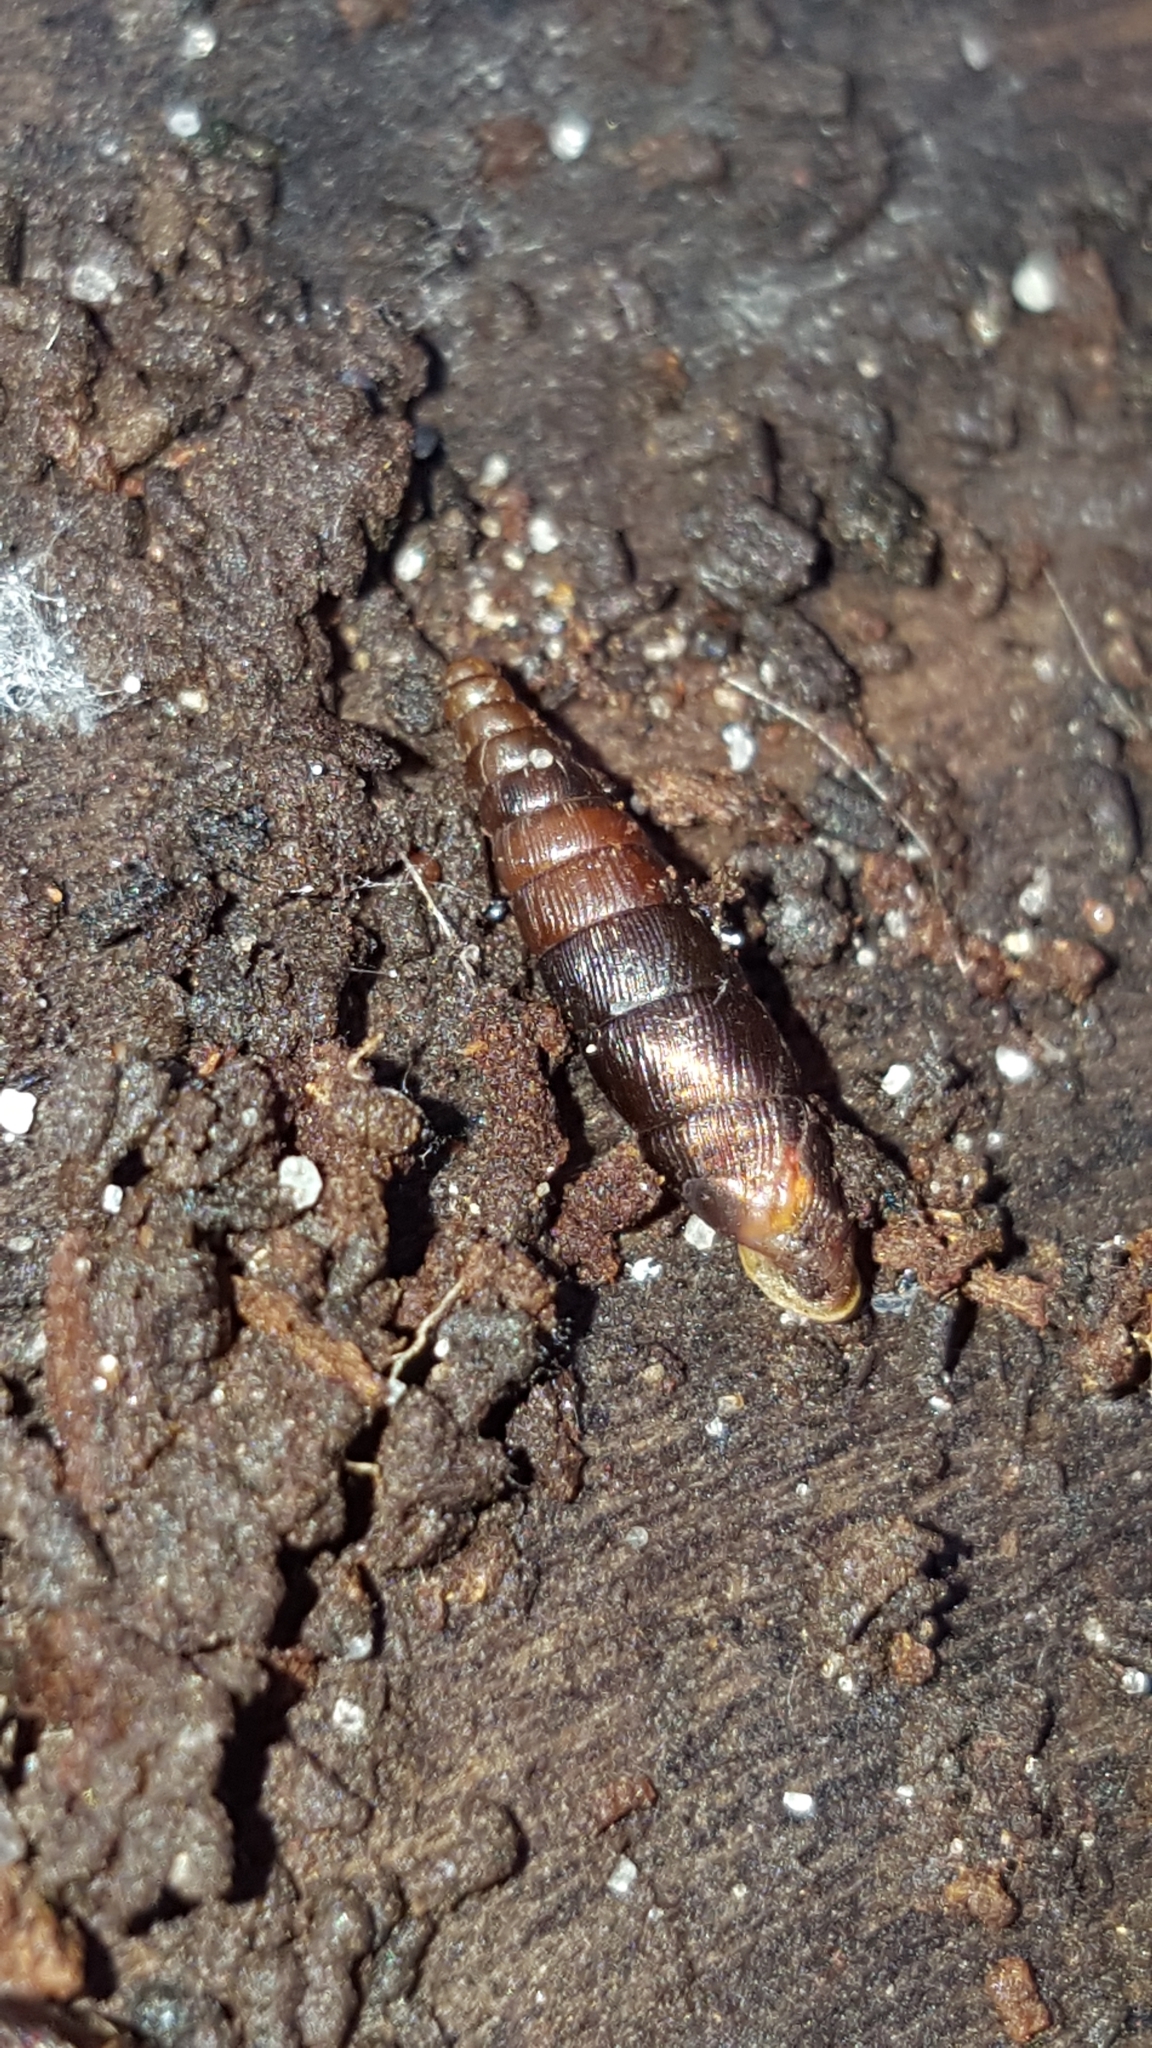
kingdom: Animalia
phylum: Mollusca
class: Gastropoda
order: Stylommatophora
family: Clausiliidae
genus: Clausilia
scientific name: Clausilia bidentata
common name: Two-toothed door snail
